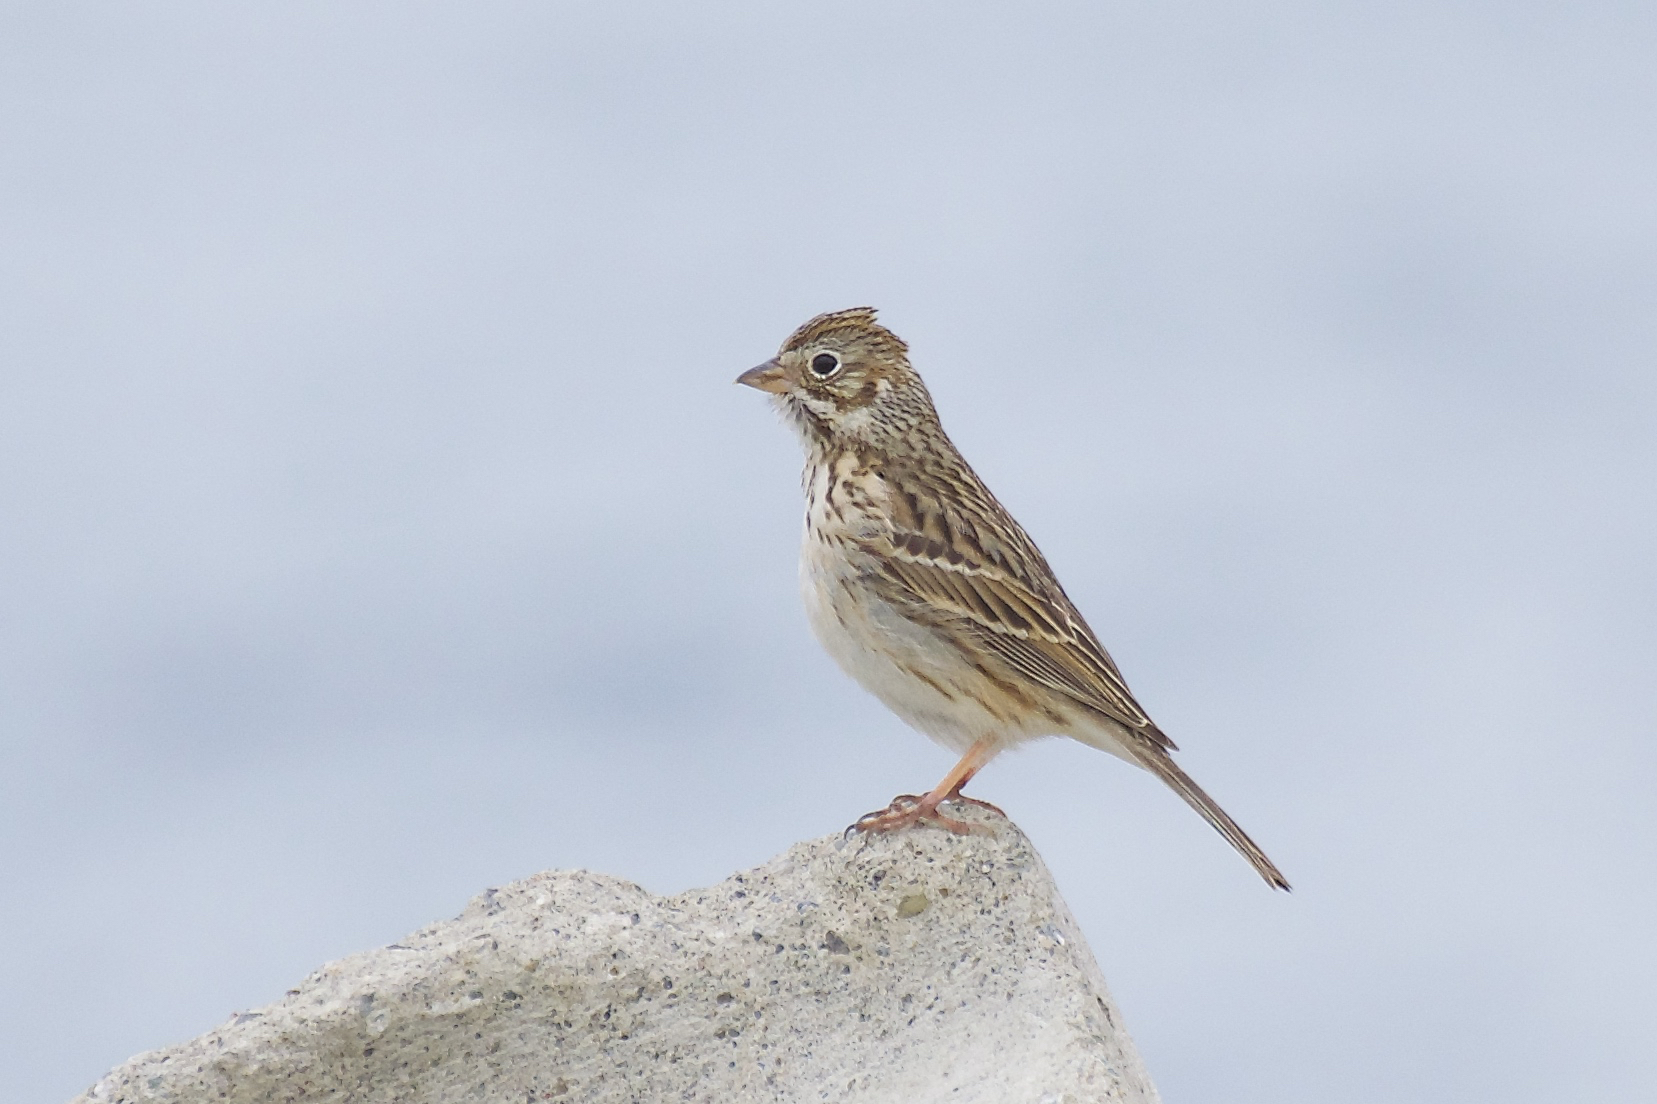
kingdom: Animalia
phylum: Chordata
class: Aves
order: Passeriformes
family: Passerellidae
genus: Pooecetes
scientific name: Pooecetes gramineus
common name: Vesper sparrow
